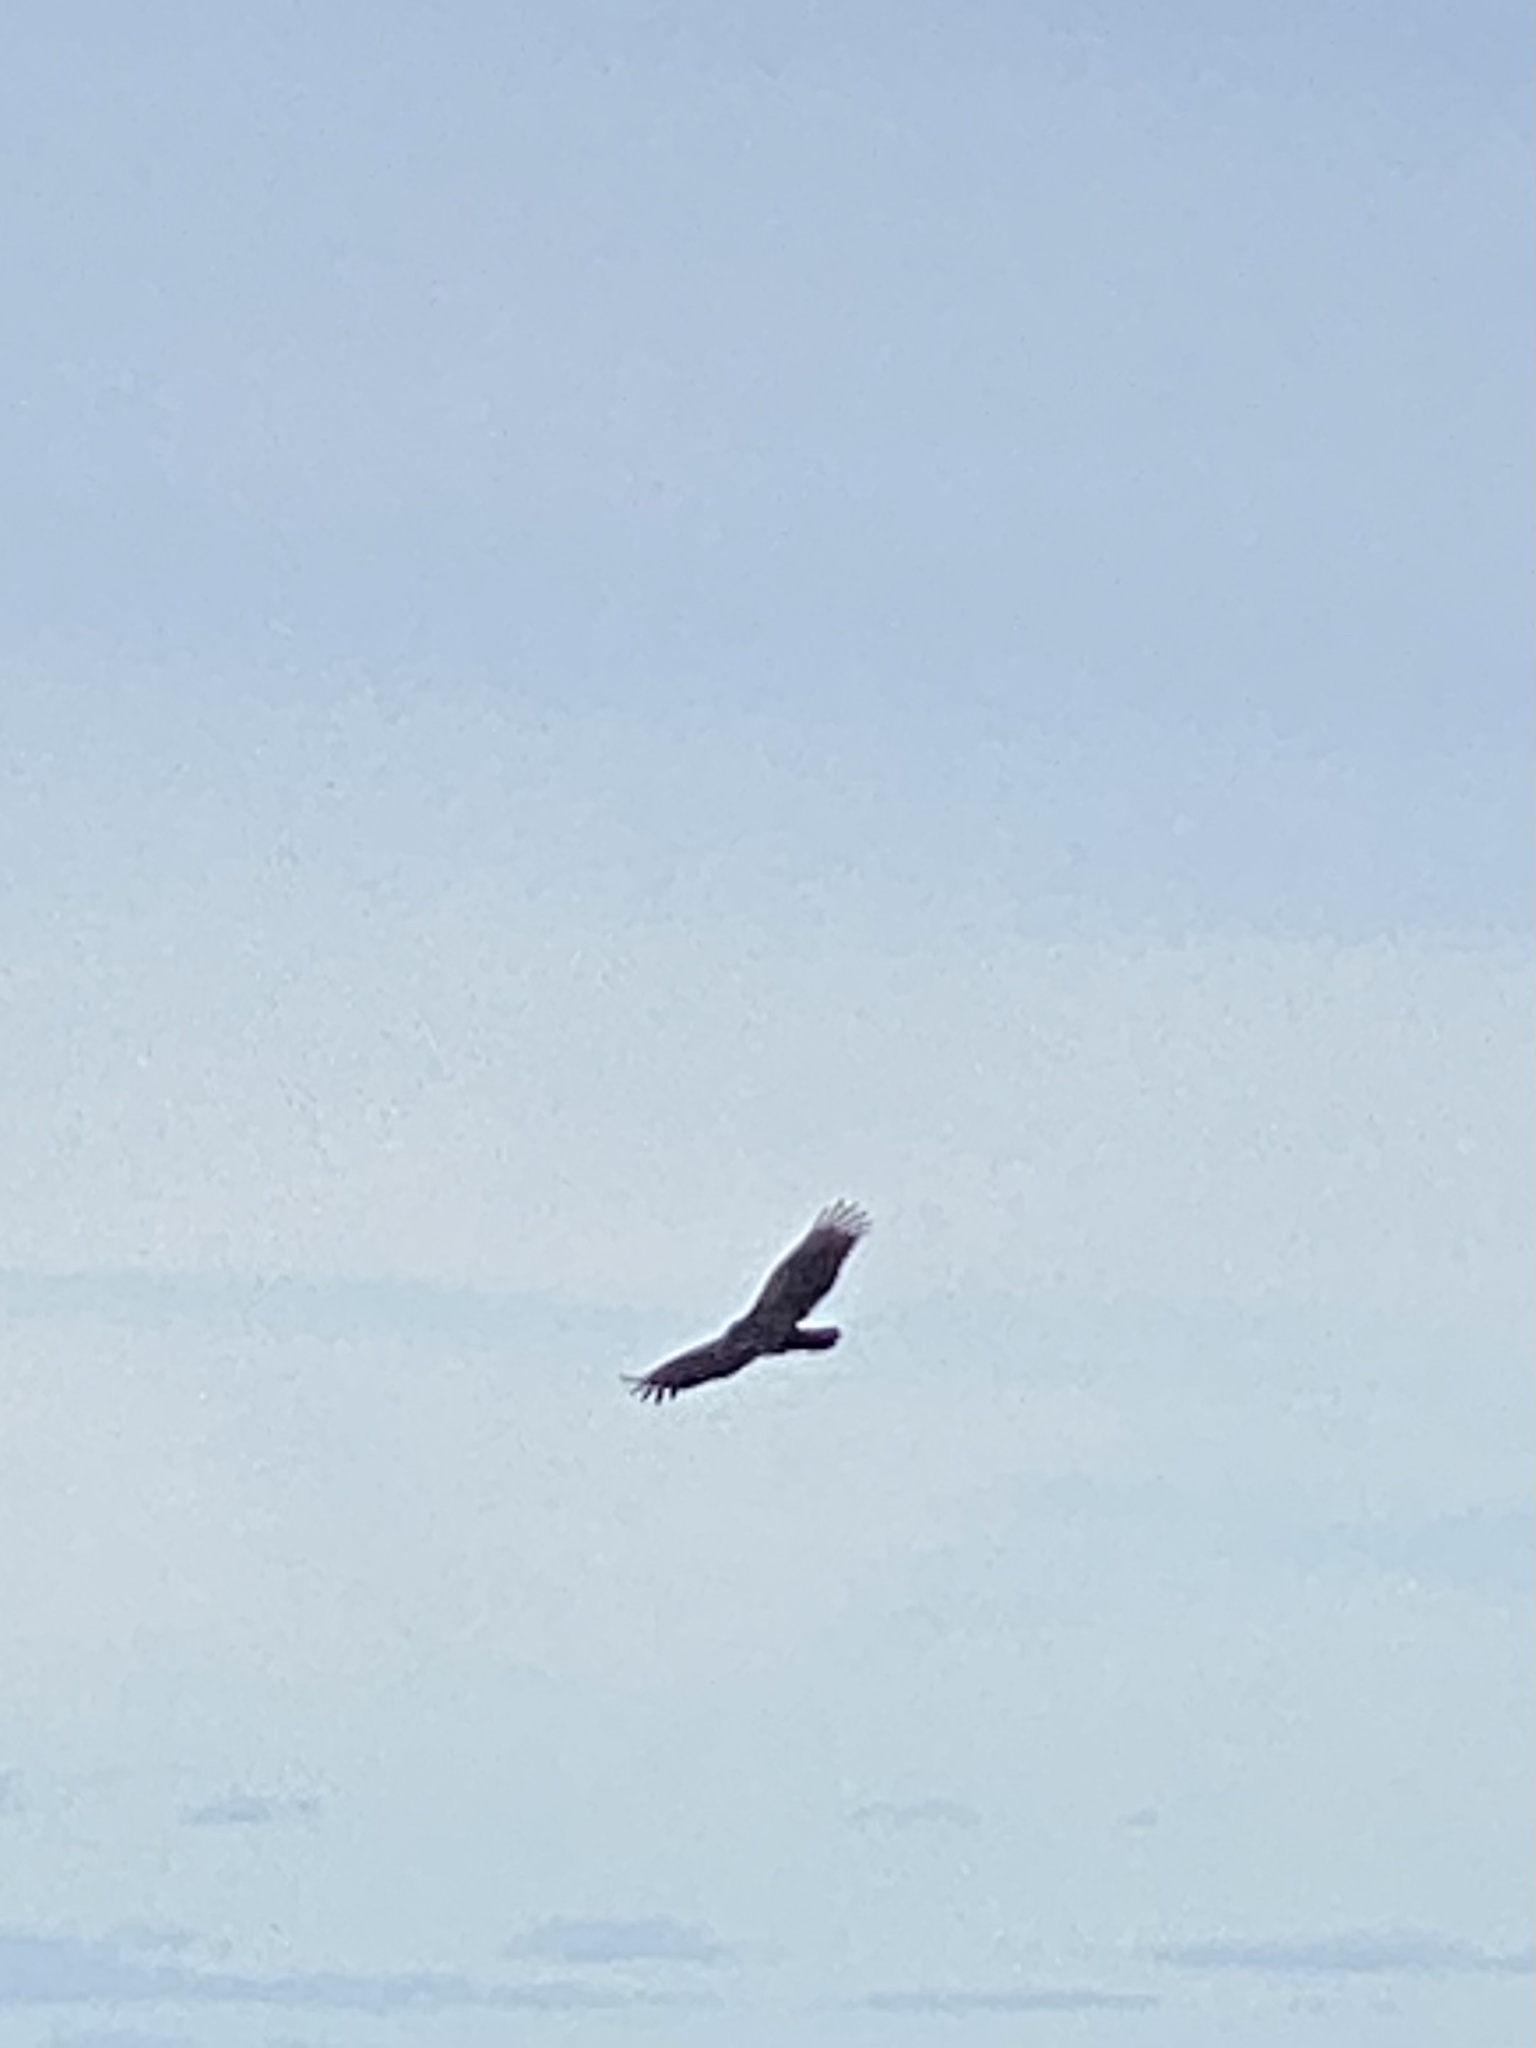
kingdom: Animalia
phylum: Chordata
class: Aves
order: Accipitriformes
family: Cathartidae
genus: Coragyps
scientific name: Coragyps atratus
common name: Black vulture
